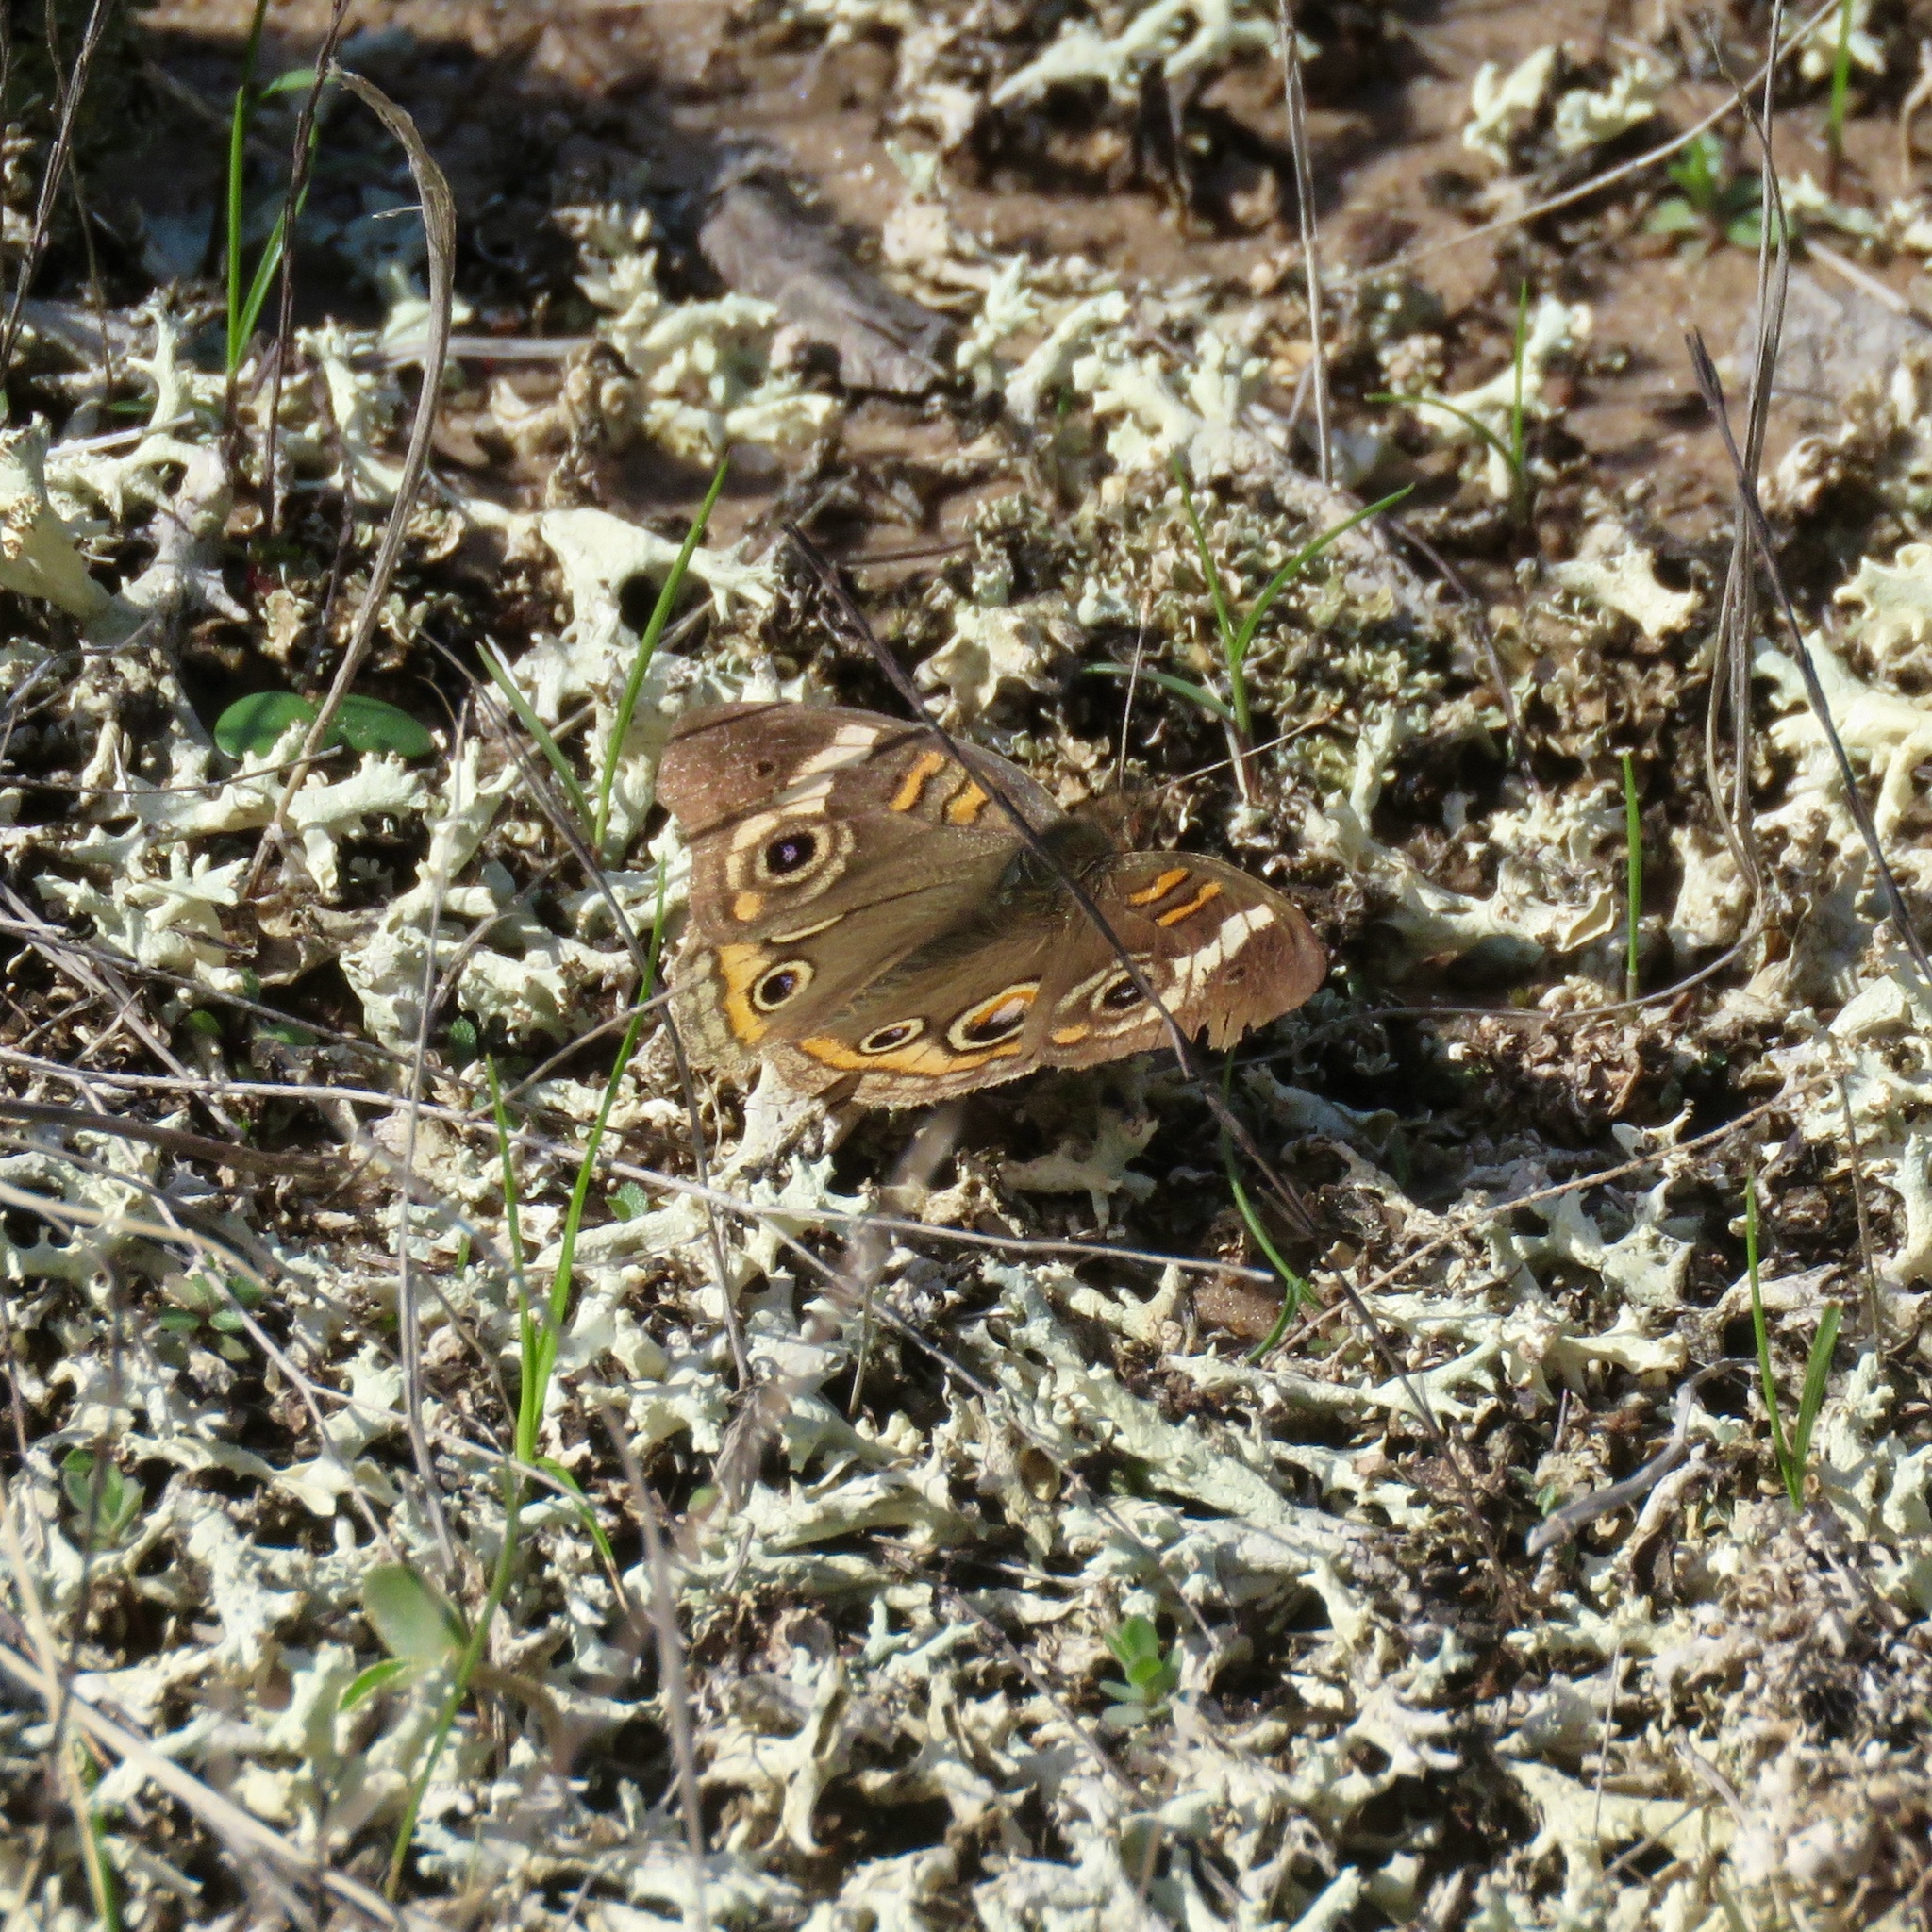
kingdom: Animalia
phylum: Arthropoda
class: Insecta
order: Lepidoptera
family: Nymphalidae
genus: Junonia
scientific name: Junonia coenia
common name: Common buckeye
